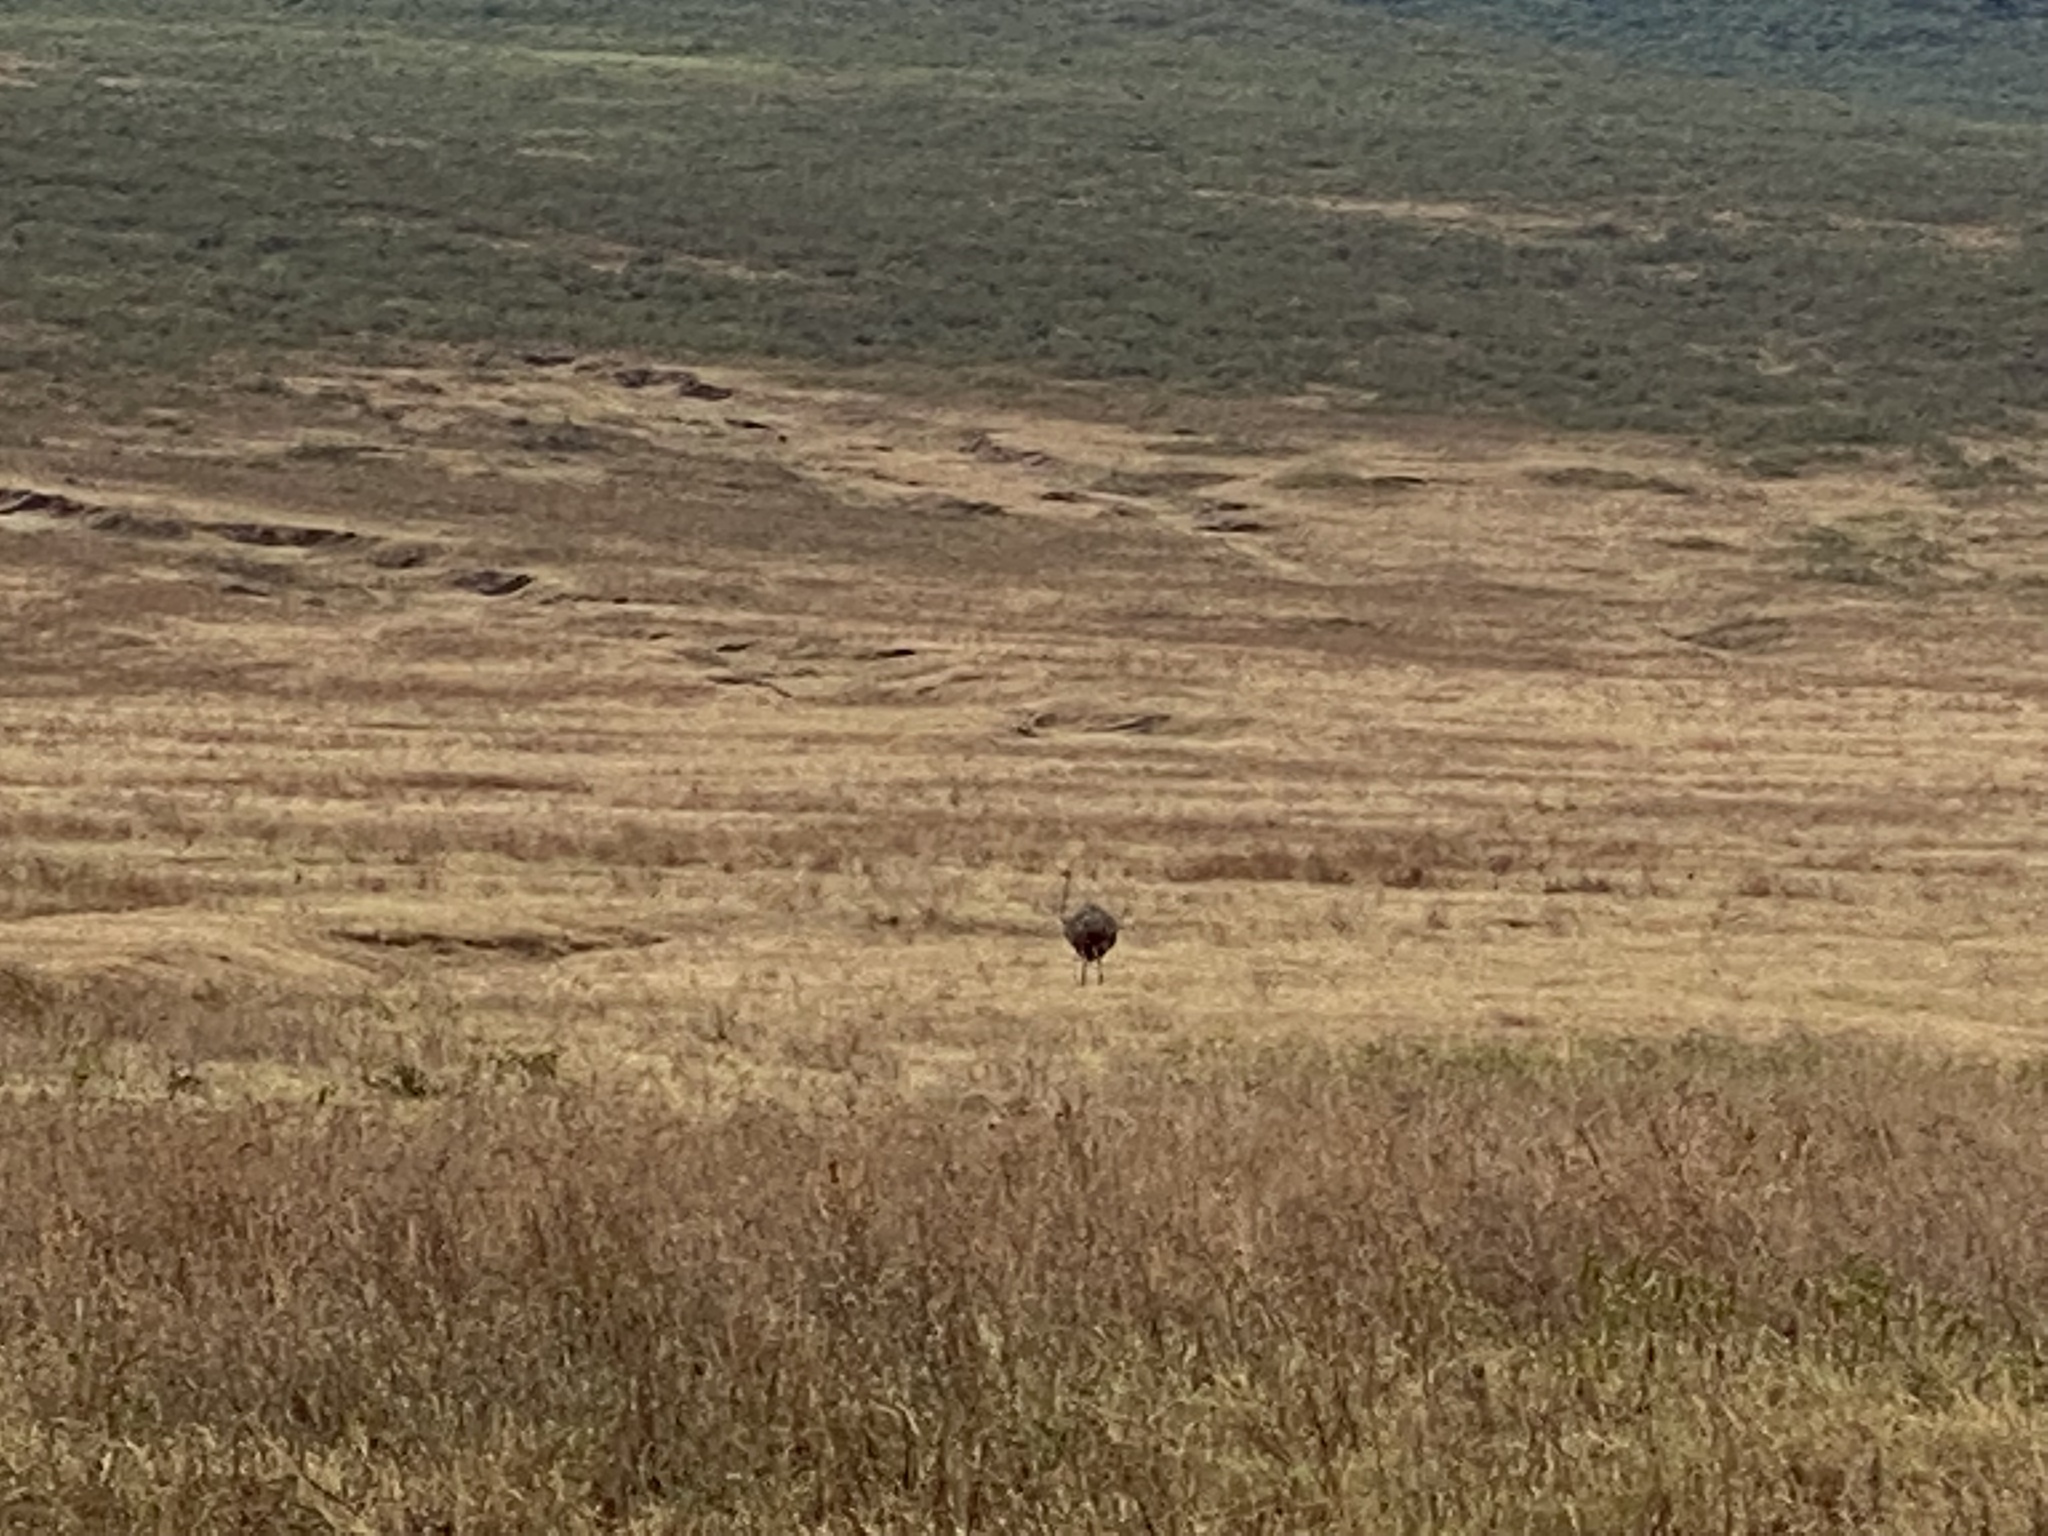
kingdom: Animalia
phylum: Chordata
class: Aves
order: Struthioniformes
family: Struthionidae
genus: Struthio
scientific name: Struthio camelus
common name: Common ostrich
